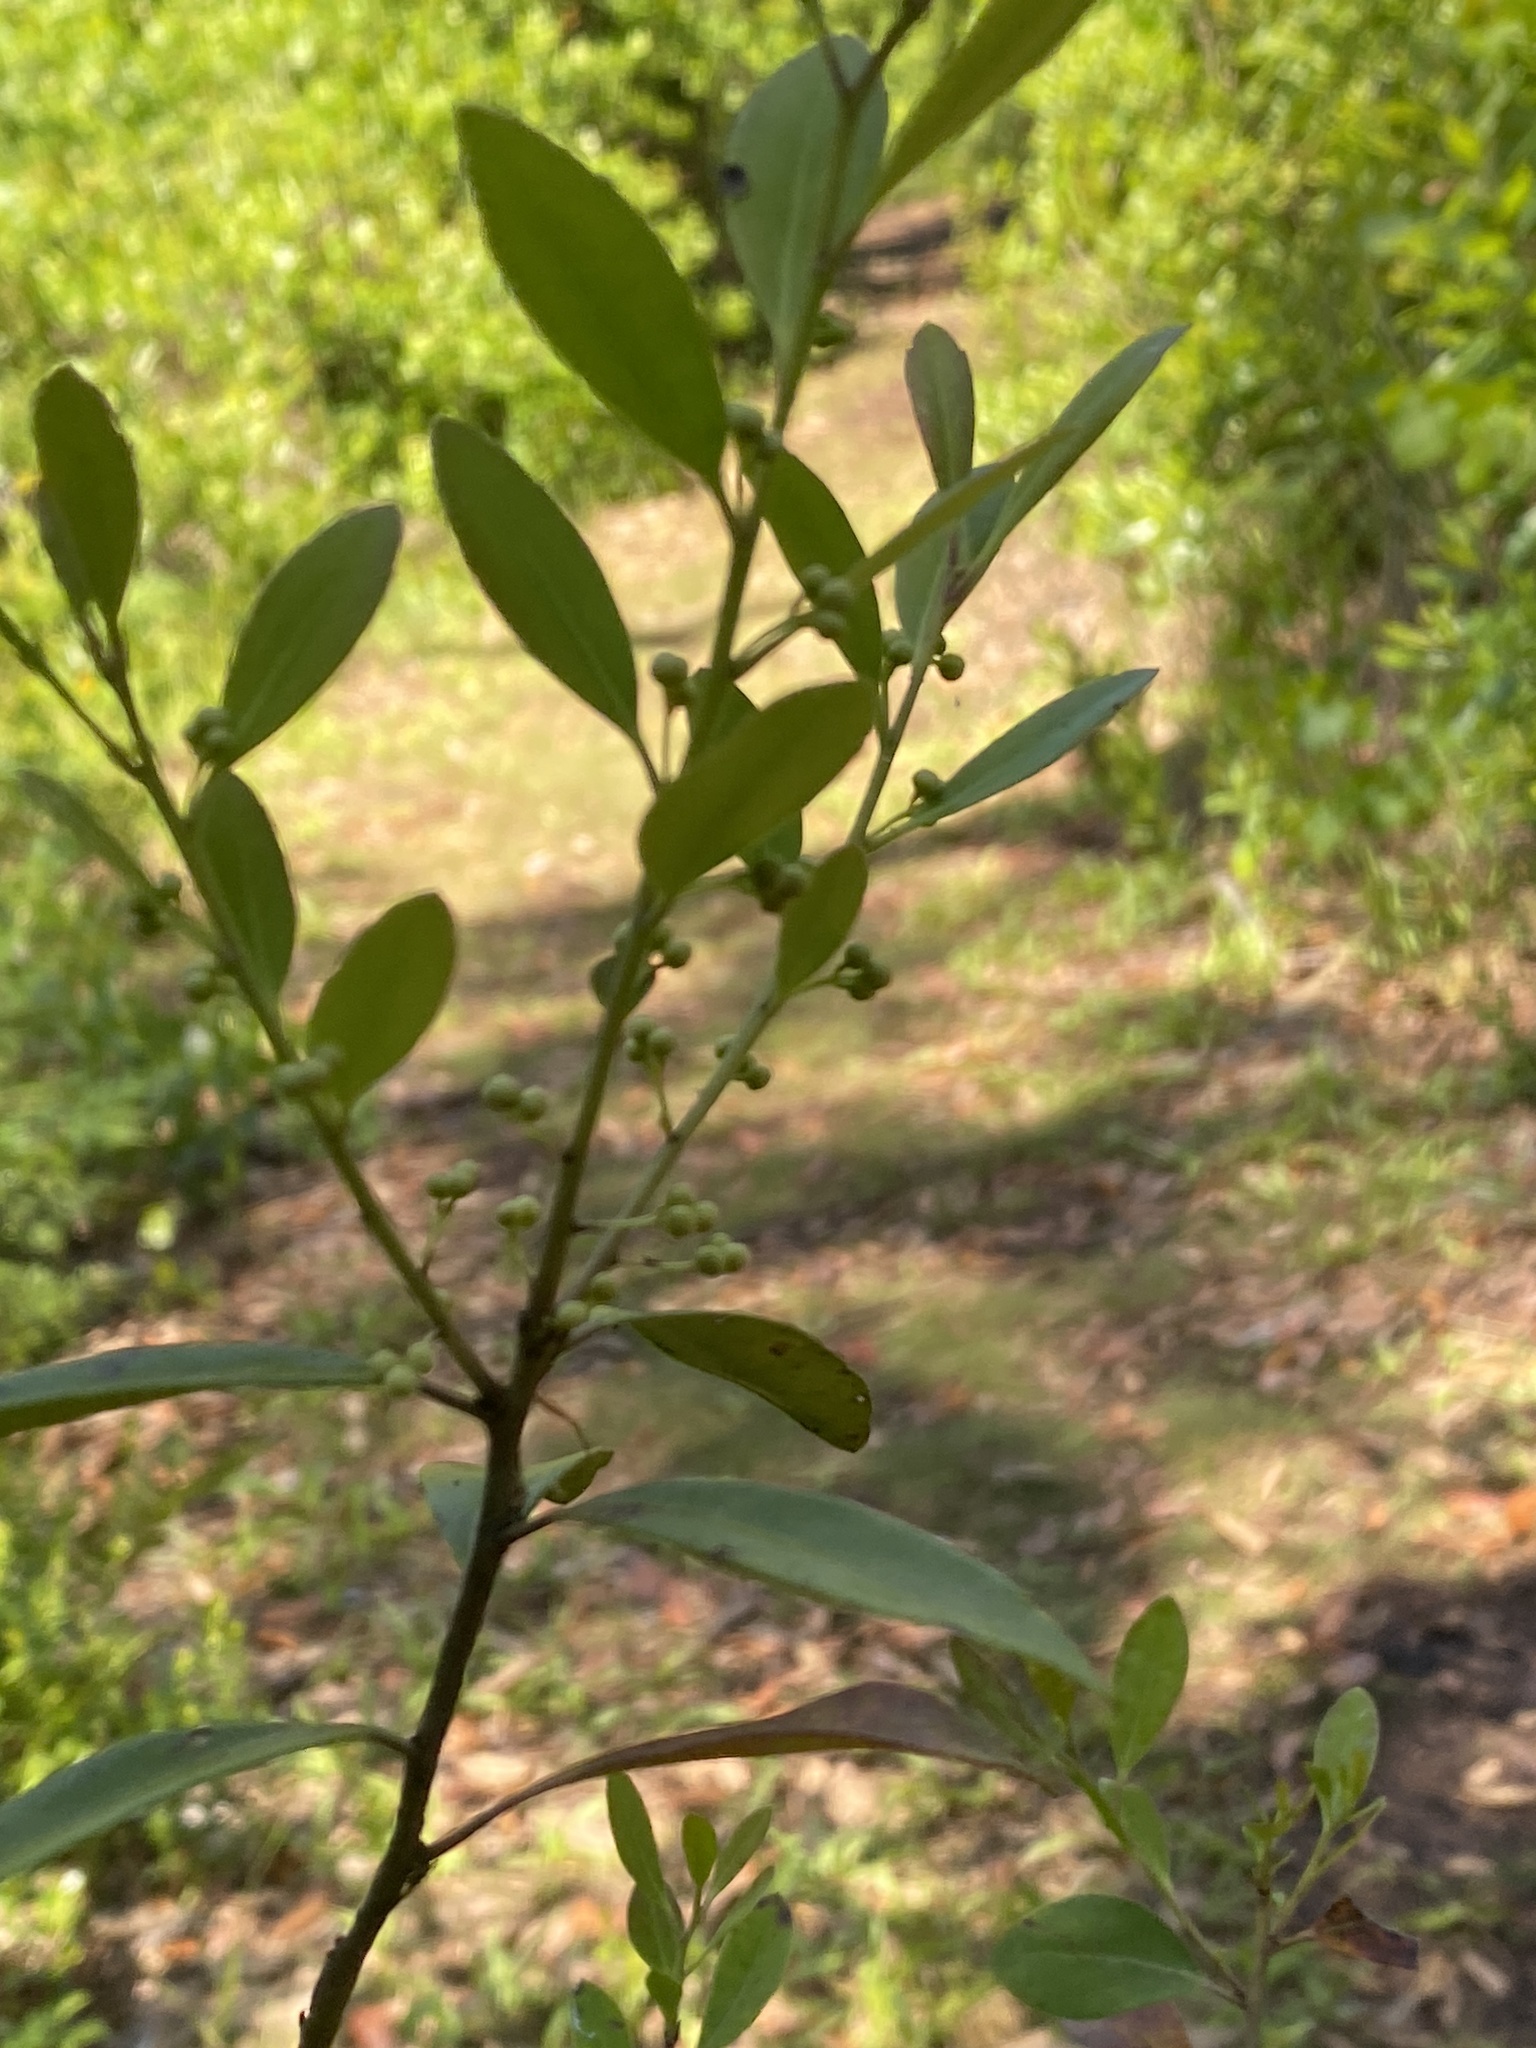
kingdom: Plantae
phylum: Tracheophyta
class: Magnoliopsida
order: Aquifoliales
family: Aquifoliaceae
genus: Ilex
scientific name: Ilex glabra
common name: Bitter gallberry
